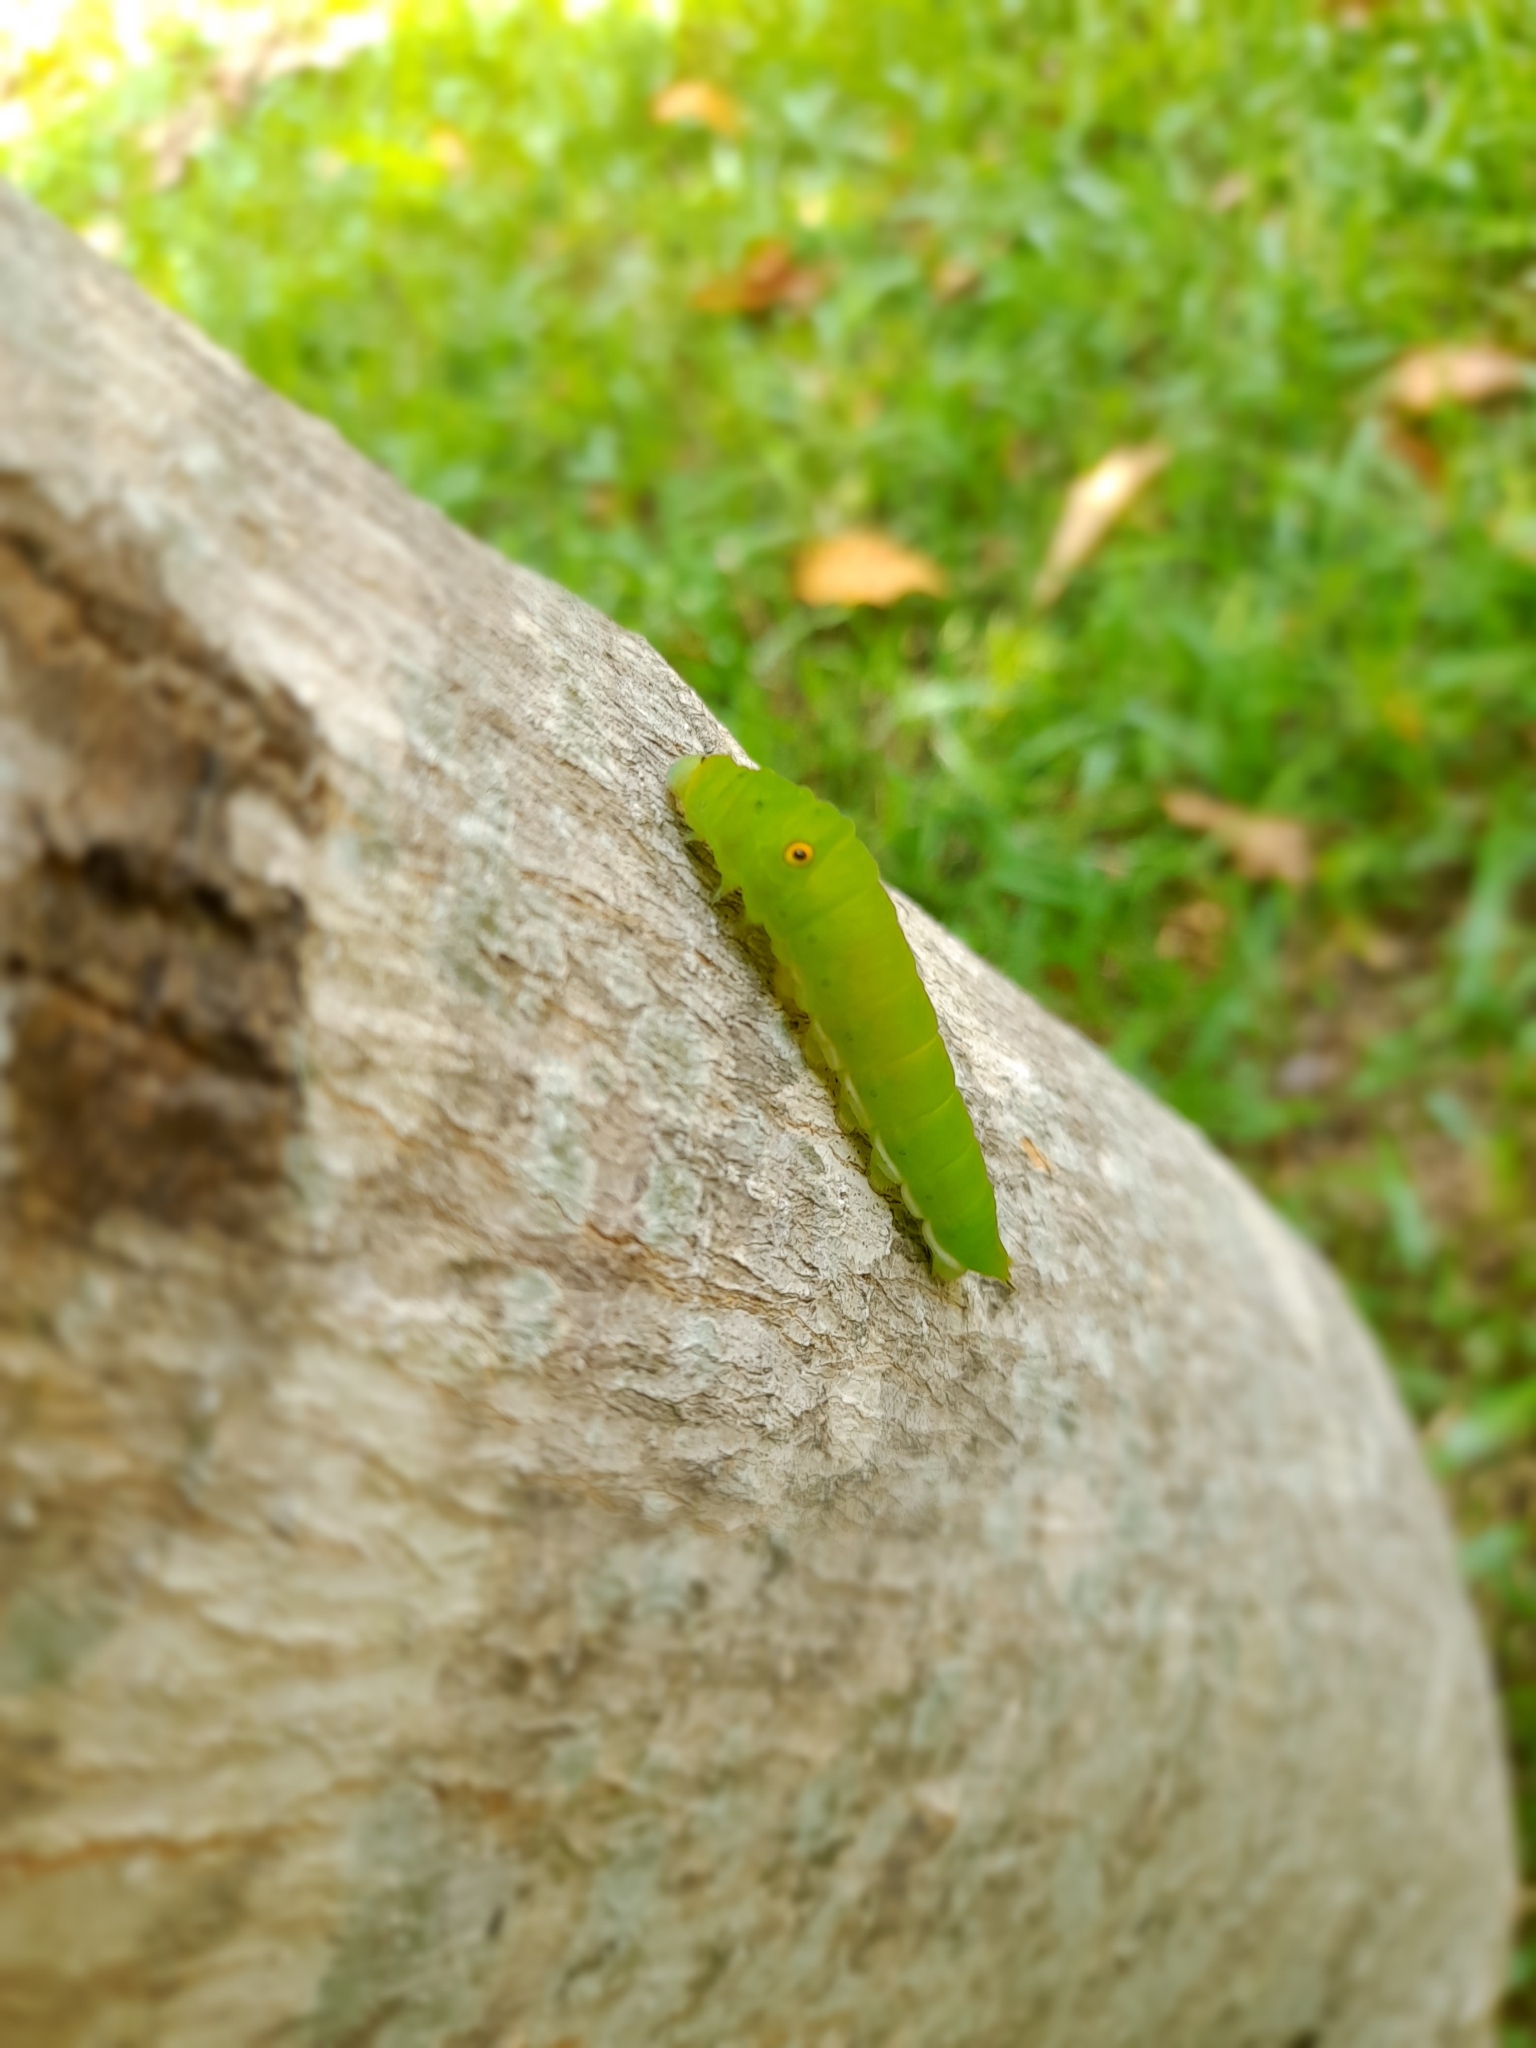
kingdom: Animalia
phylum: Arthropoda
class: Insecta
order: Lepidoptera
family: Papilionidae
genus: Graphium
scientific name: Graphium doson
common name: Common jay
